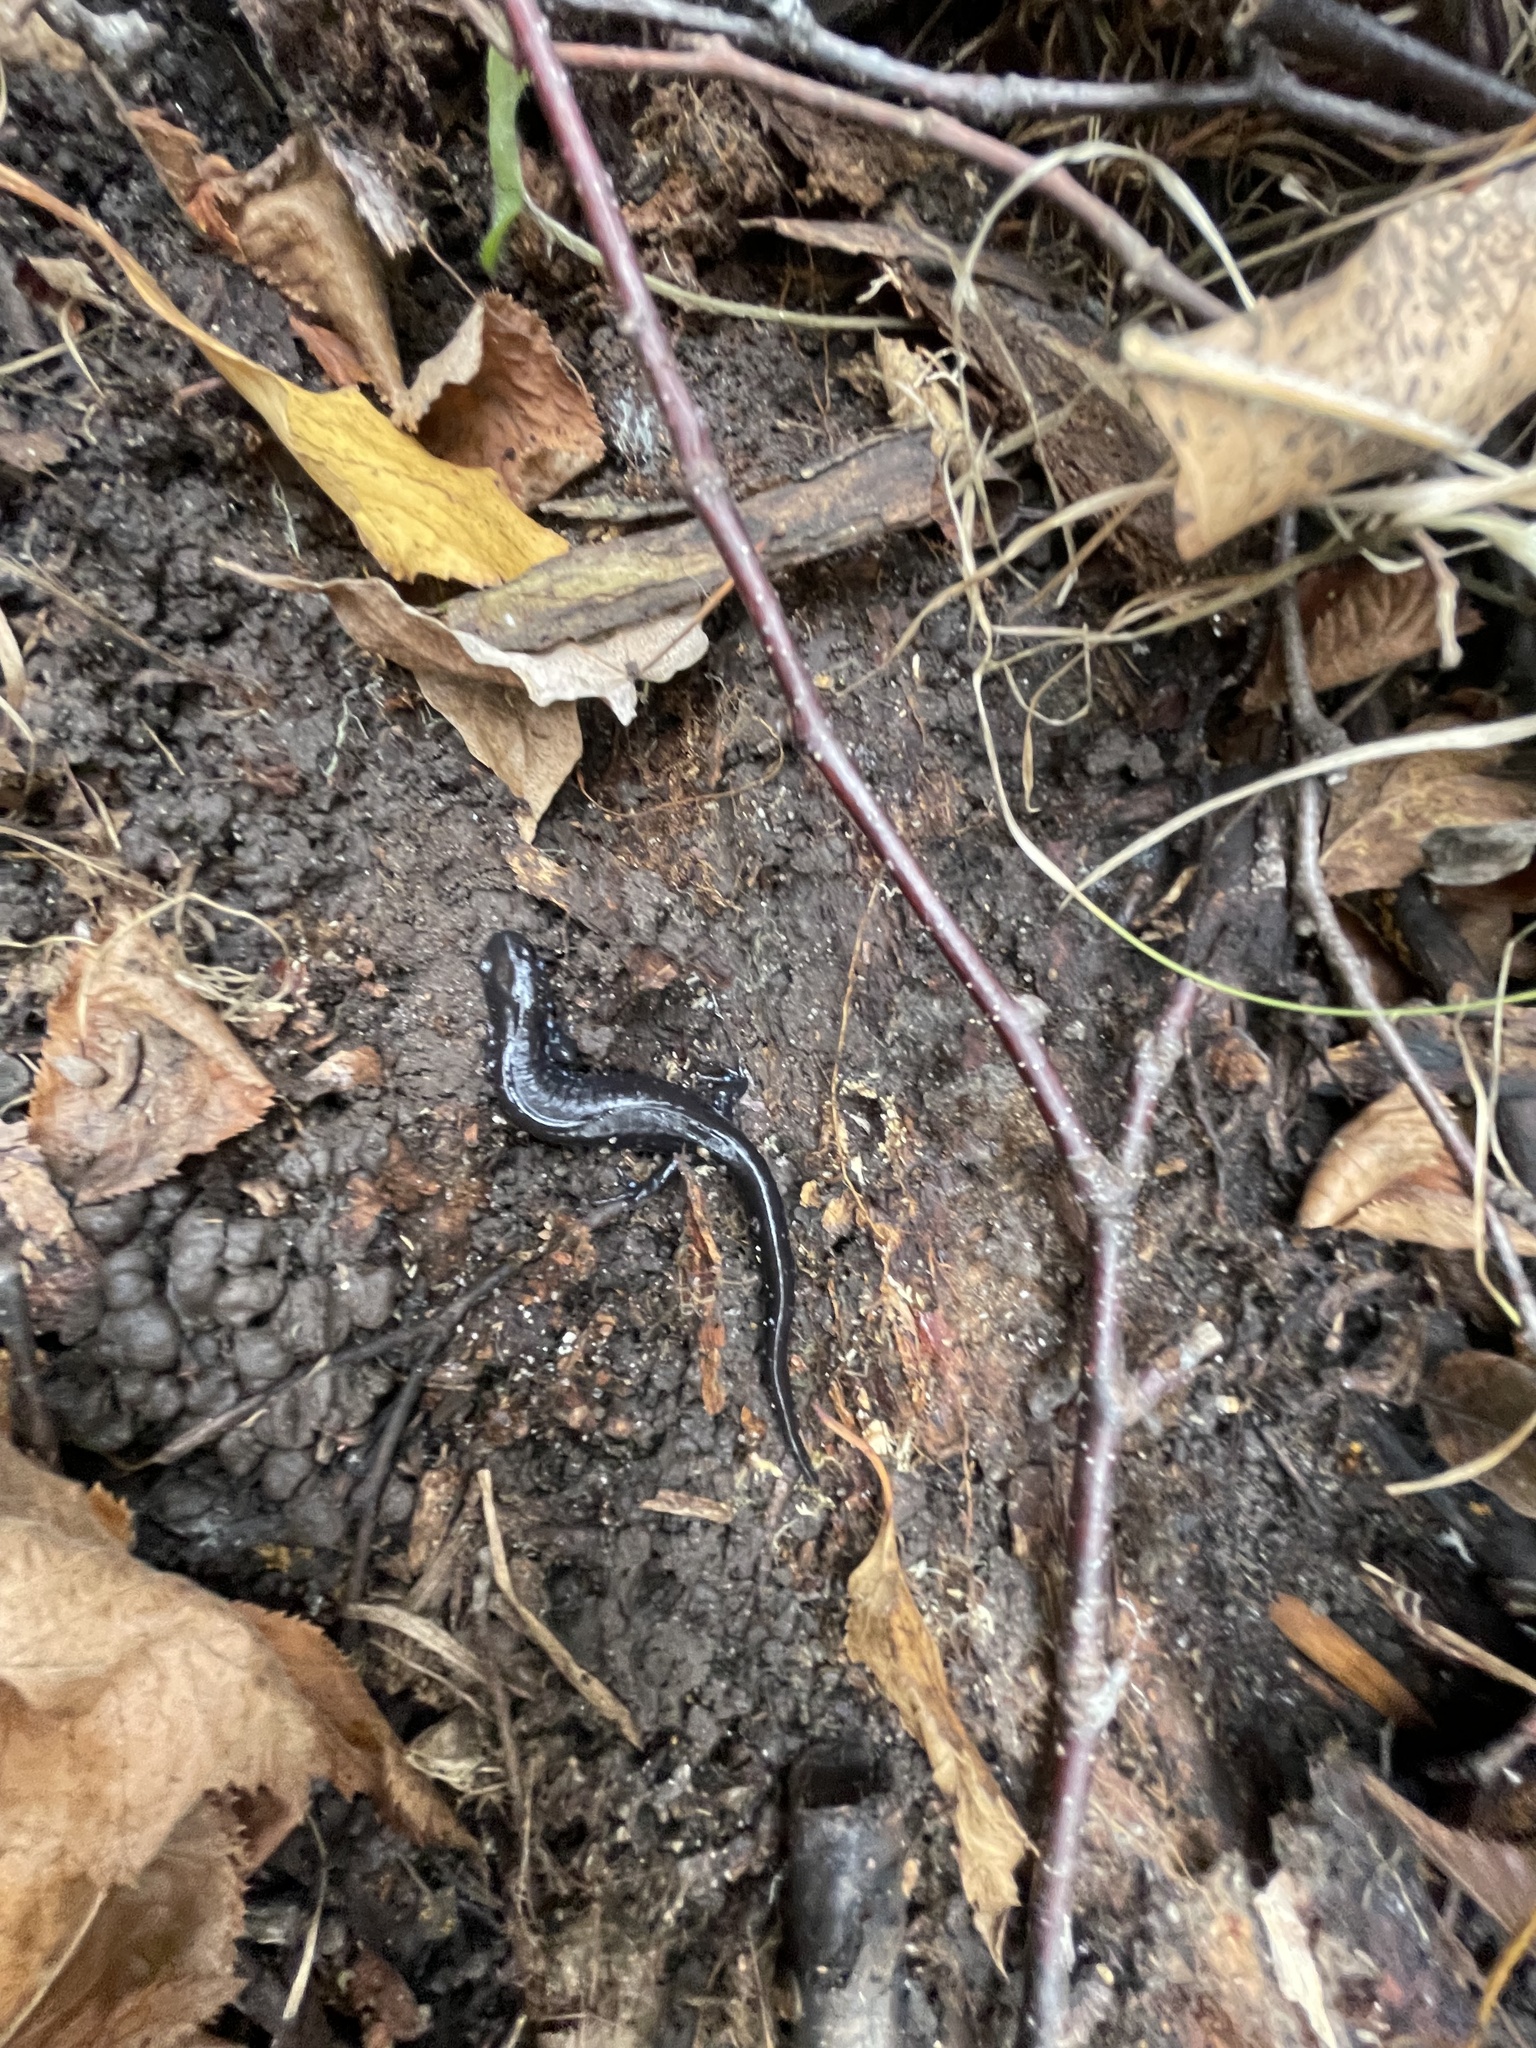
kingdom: Animalia
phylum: Chordata
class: Amphibia
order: Caudata
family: Ambystomatidae
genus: Ambystoma
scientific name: Ambystoma laterale
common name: Blue-spotted salamander
